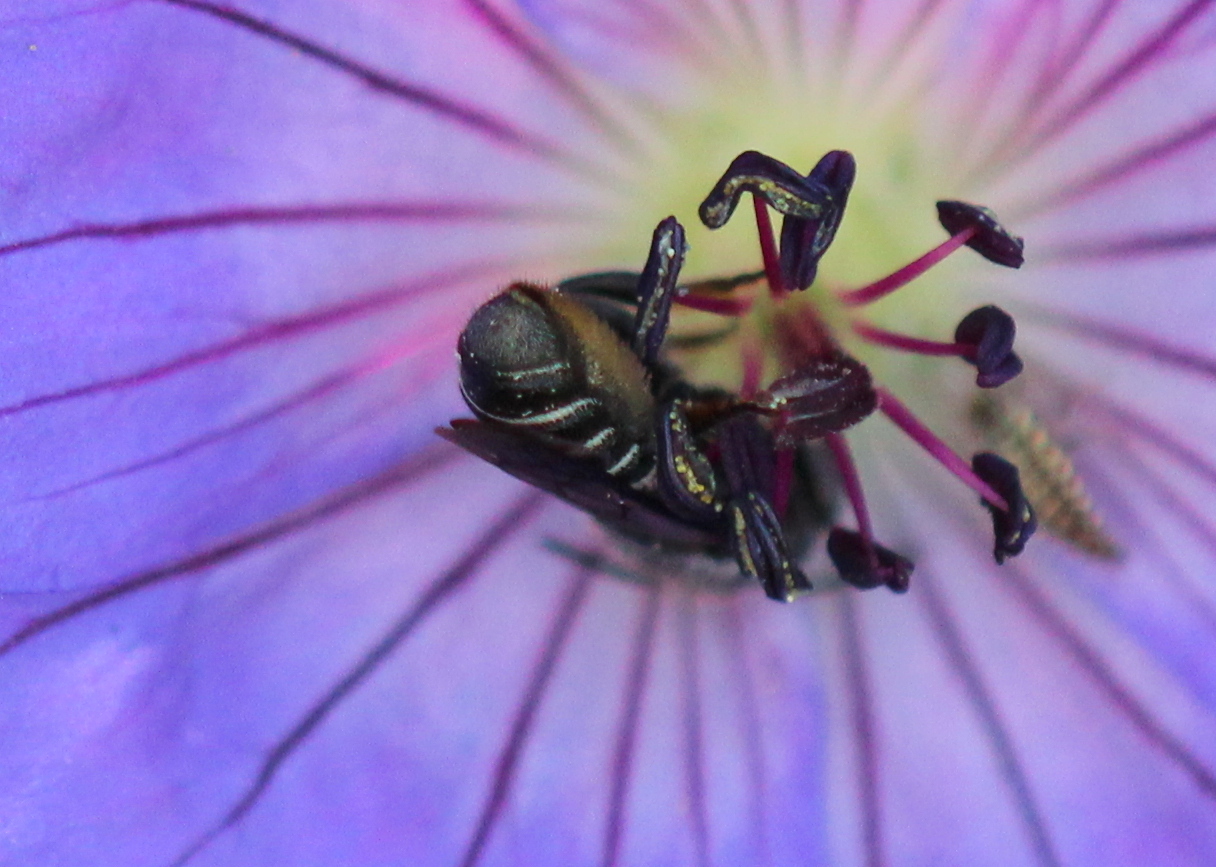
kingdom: Animalia
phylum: Arthropoda
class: Insecta
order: Hymenoptera
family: Megachilidae
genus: Megachile
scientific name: Megachile campanulae
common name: Bellflower resin bee
